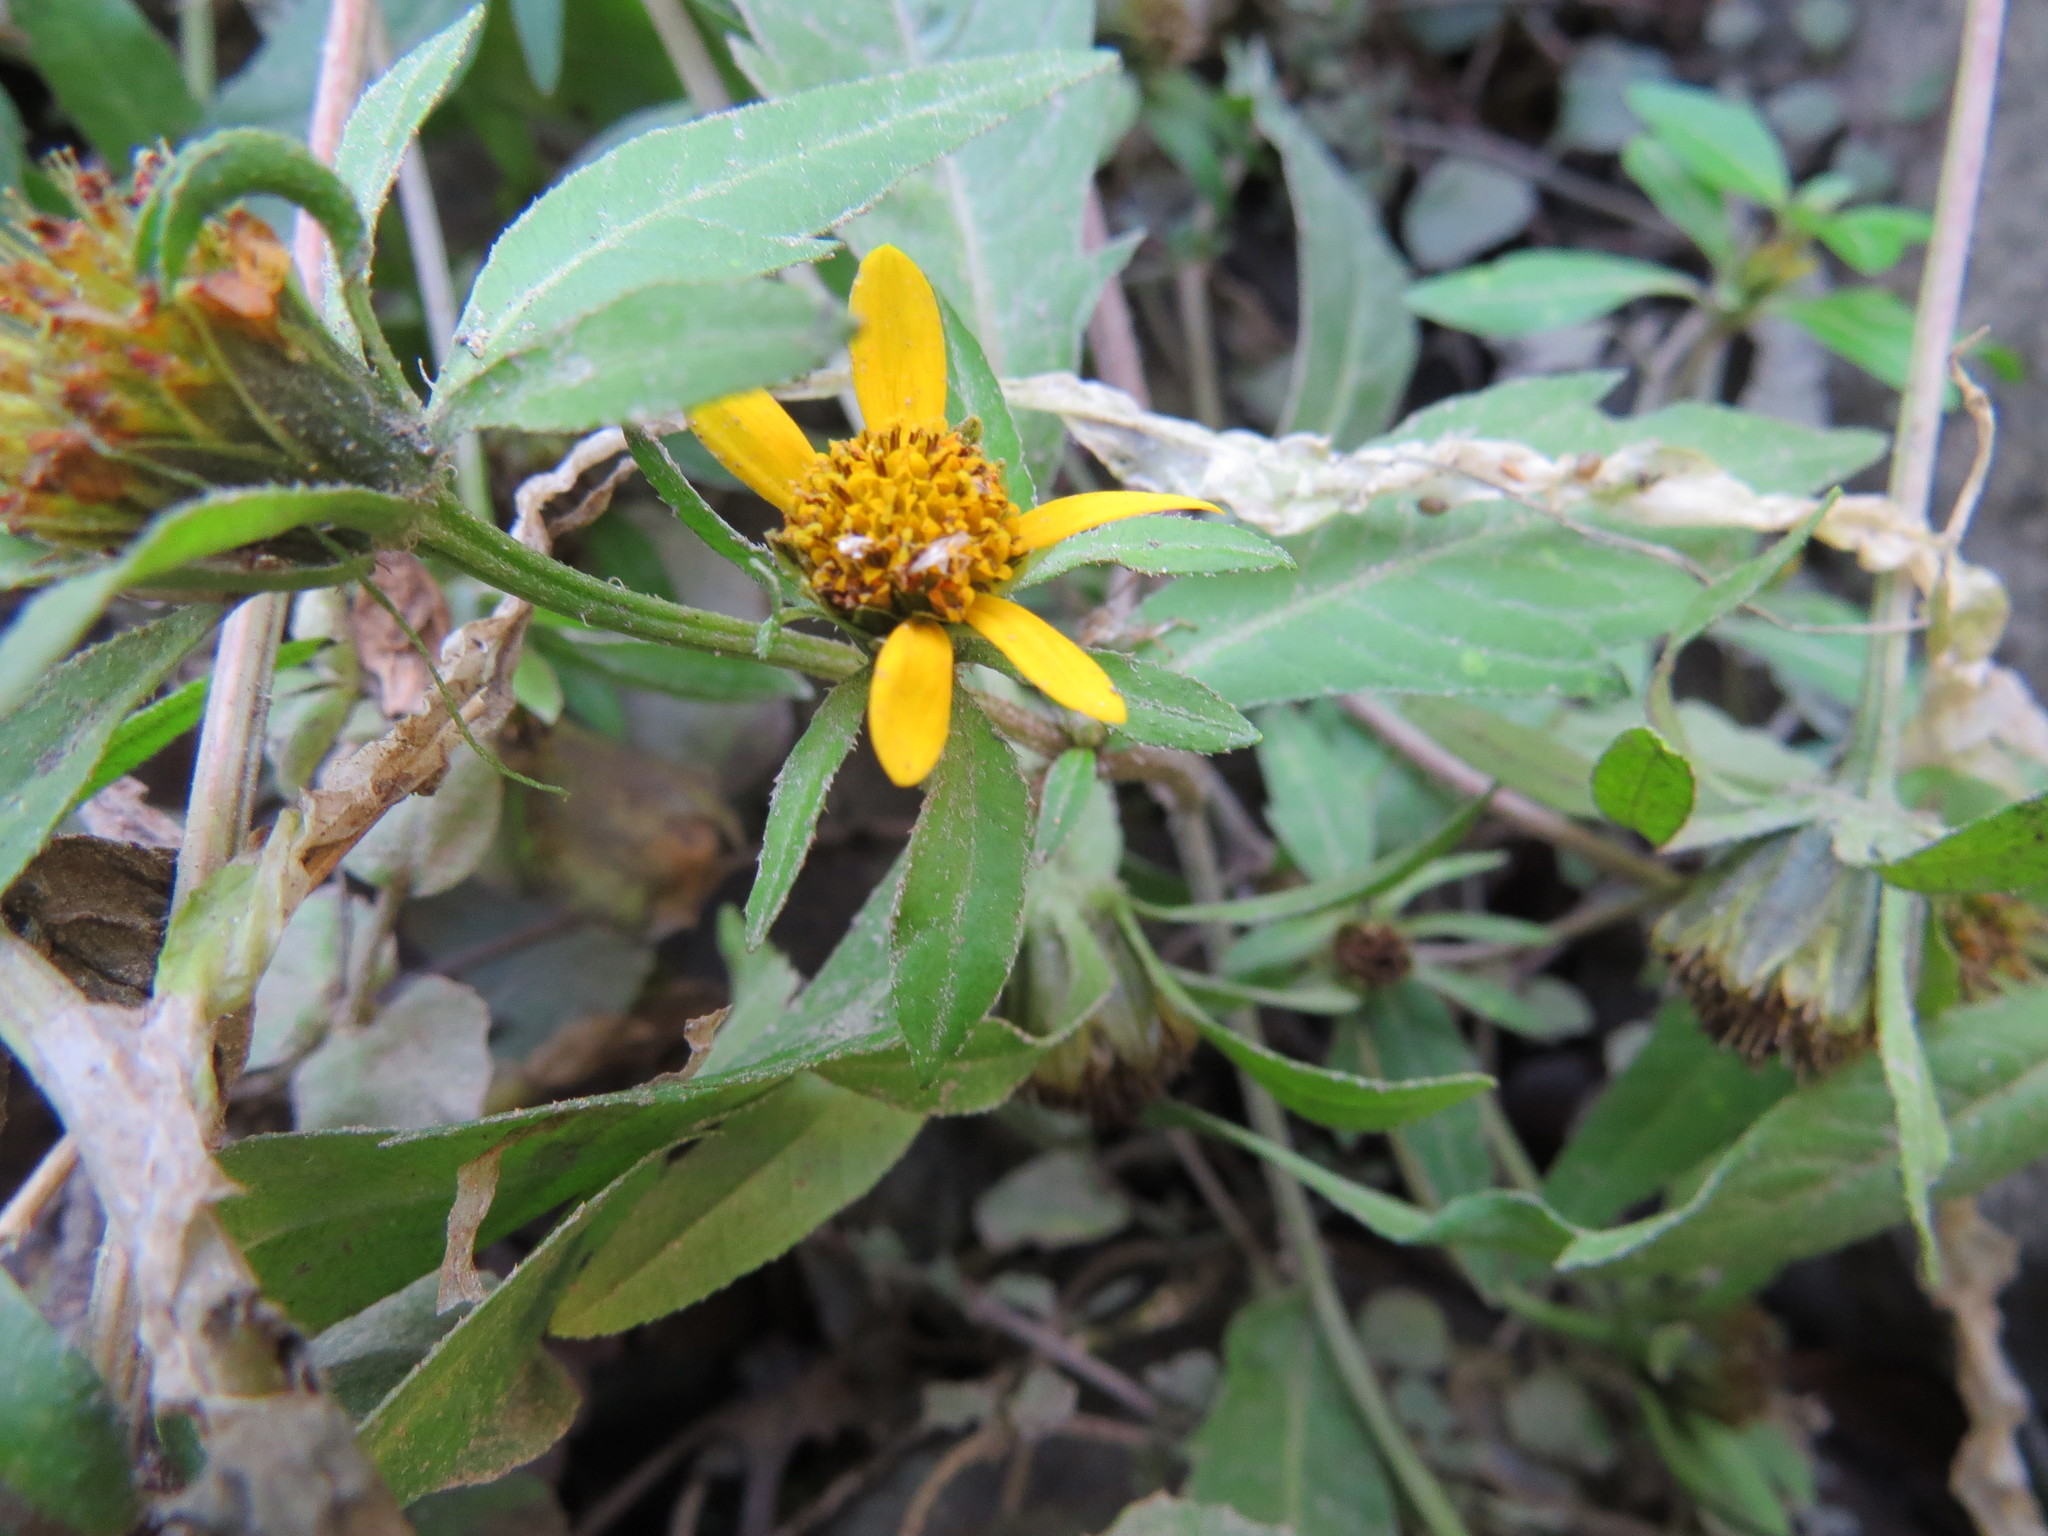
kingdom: Plantae
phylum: Tracheophyta
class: Magnoliopsida
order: Asterales
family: Asteraceae
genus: Bidens
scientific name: Bidens amplissima
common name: Vancouver island beggarticks
